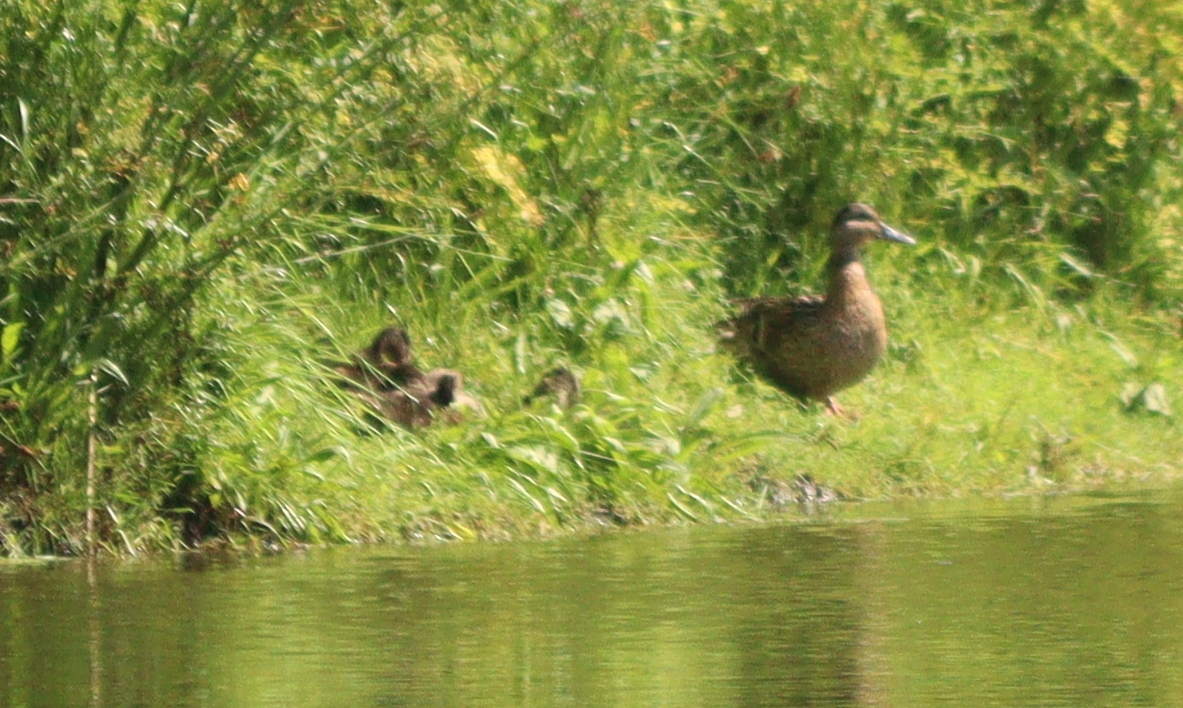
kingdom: Animalia
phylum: Chordata
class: Aves
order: Anseriformes
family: Anatidae
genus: Anas
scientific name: Anas platyrhynchos
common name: Mallard
